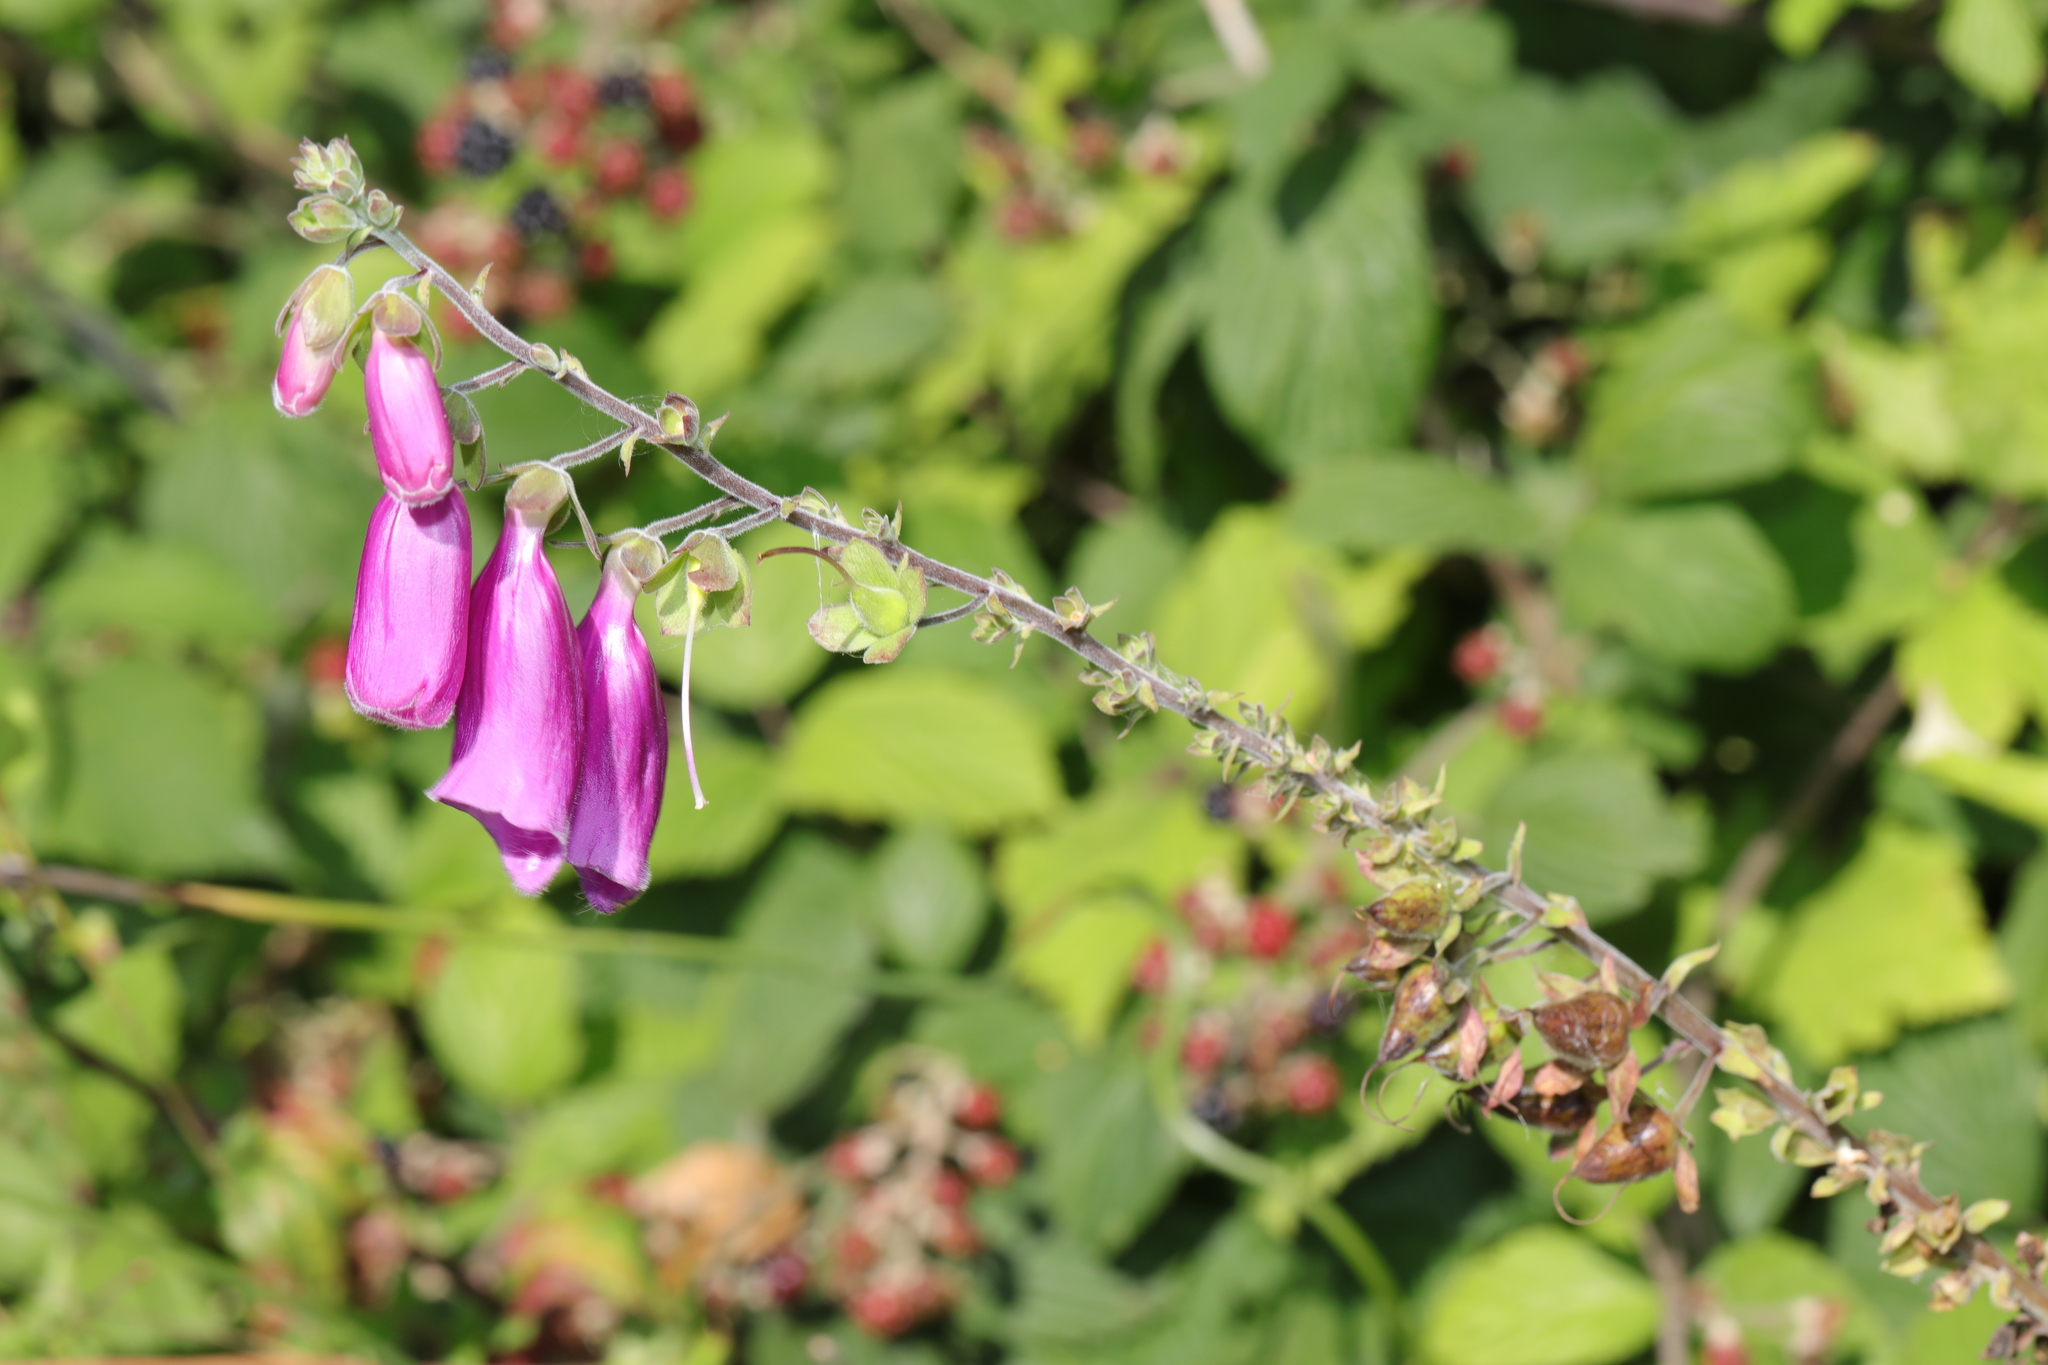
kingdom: Plantae
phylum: Tracheophyta
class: Magnoliopsida
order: Lamiales
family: Plantaginaceae
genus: Digitalis
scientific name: Digitalis purpurea
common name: Foxglove
